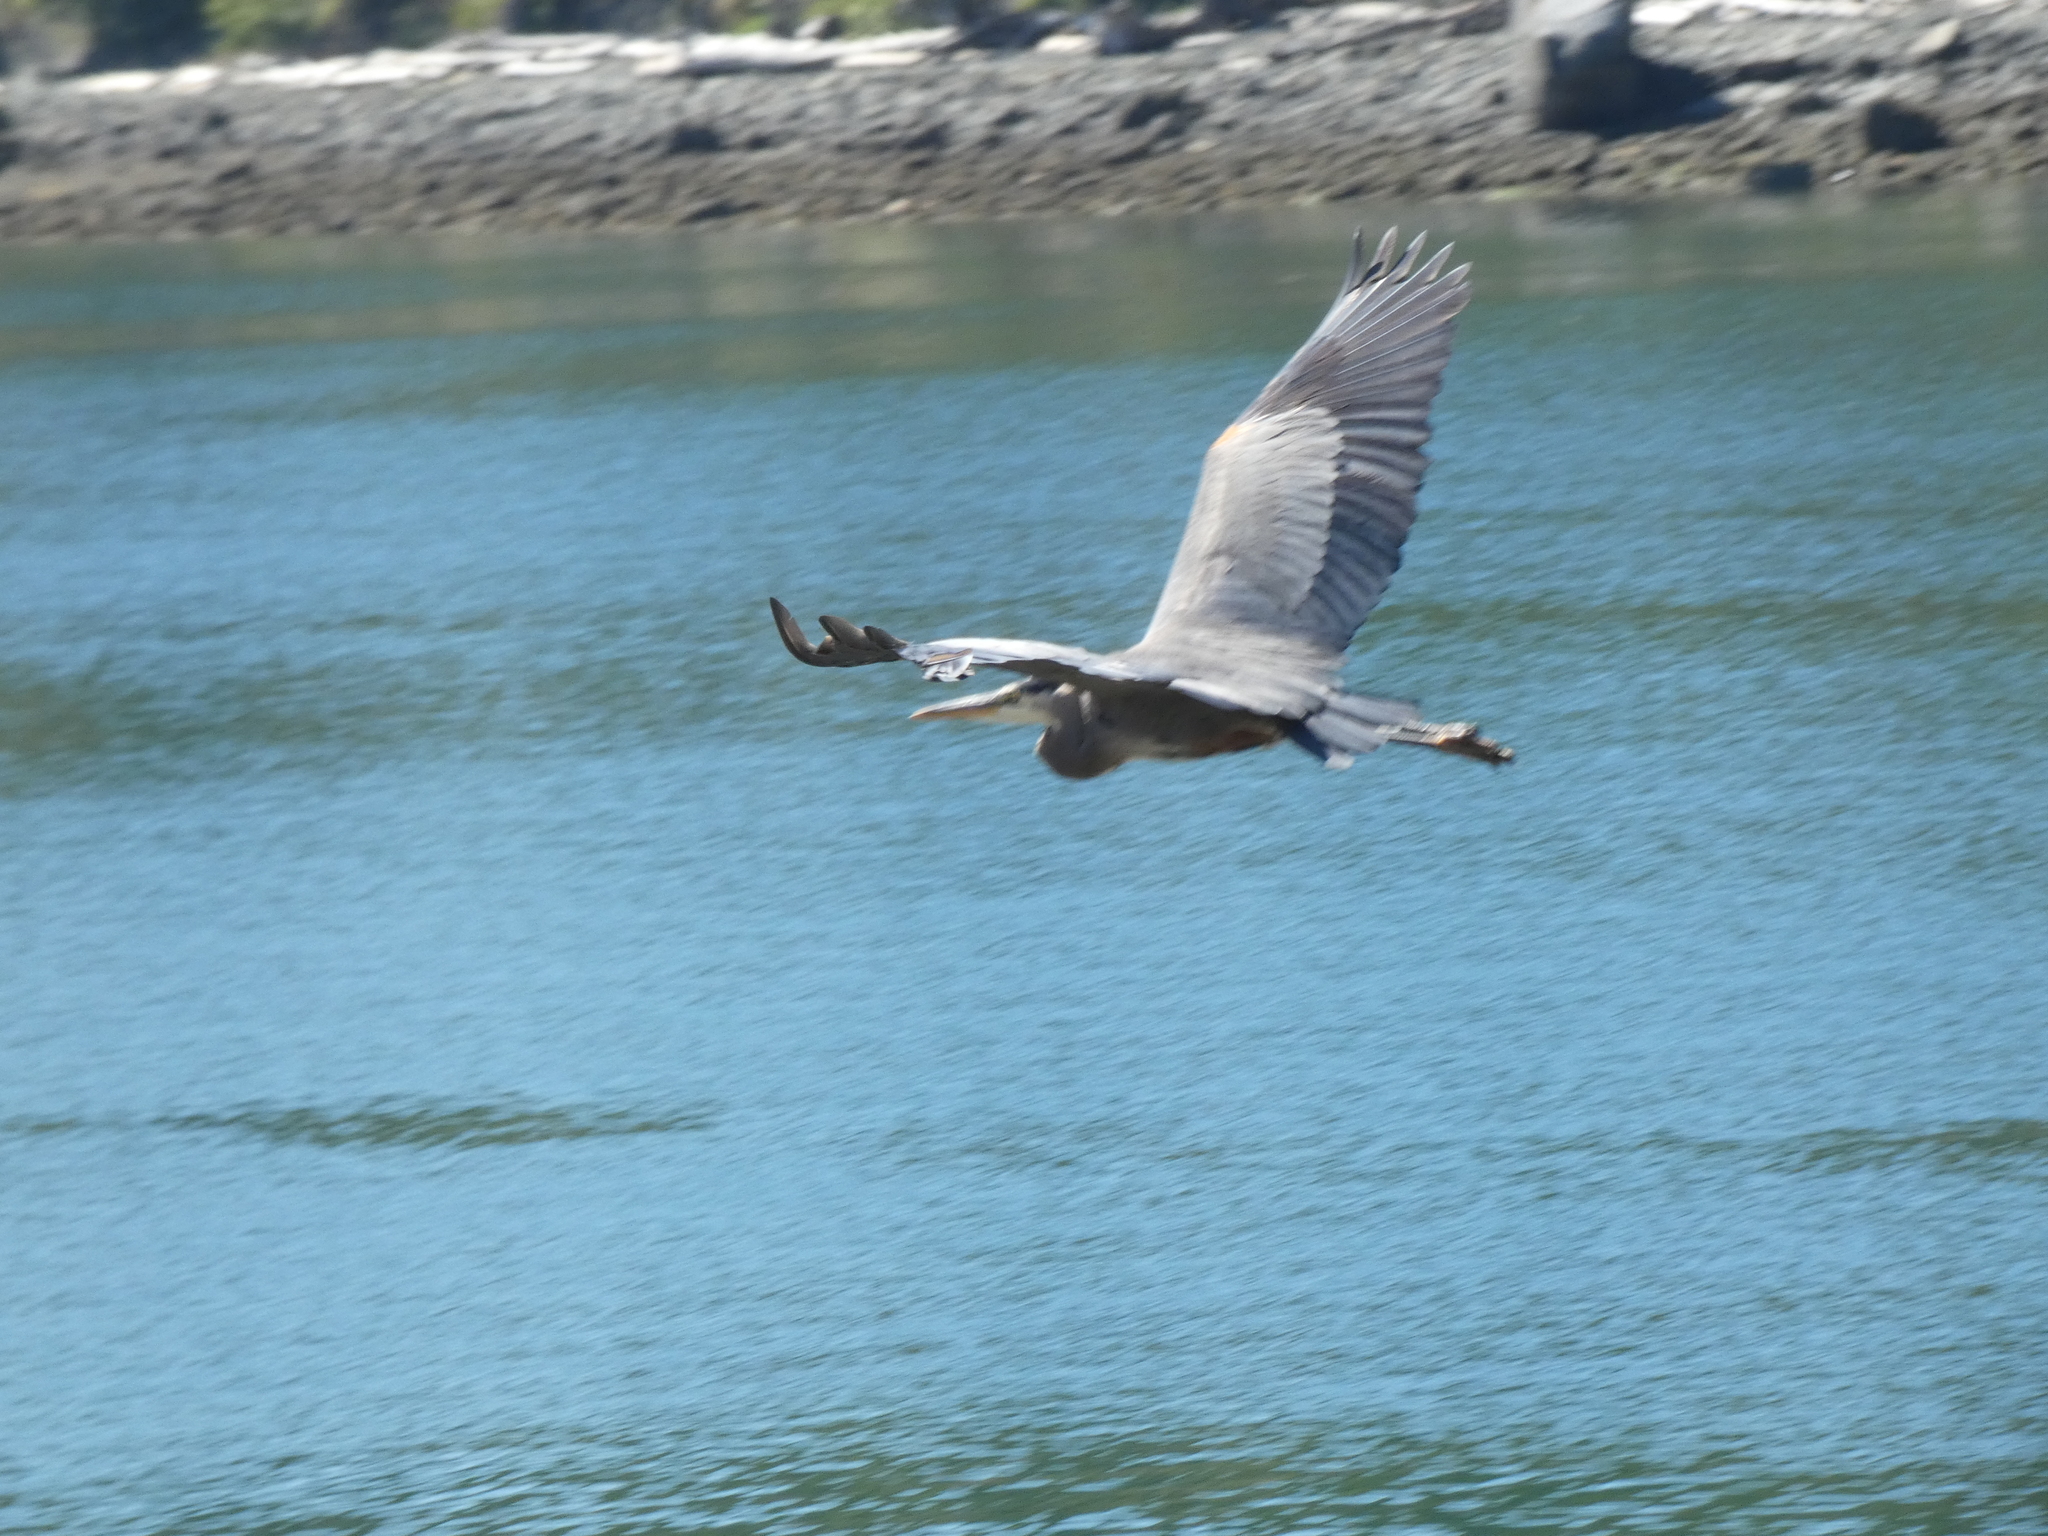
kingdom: Animalia
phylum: Chordata
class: Aves
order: Pelecaniformes
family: Ardeidae
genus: Ardea
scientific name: Ardea herodias
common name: Great blue heron
